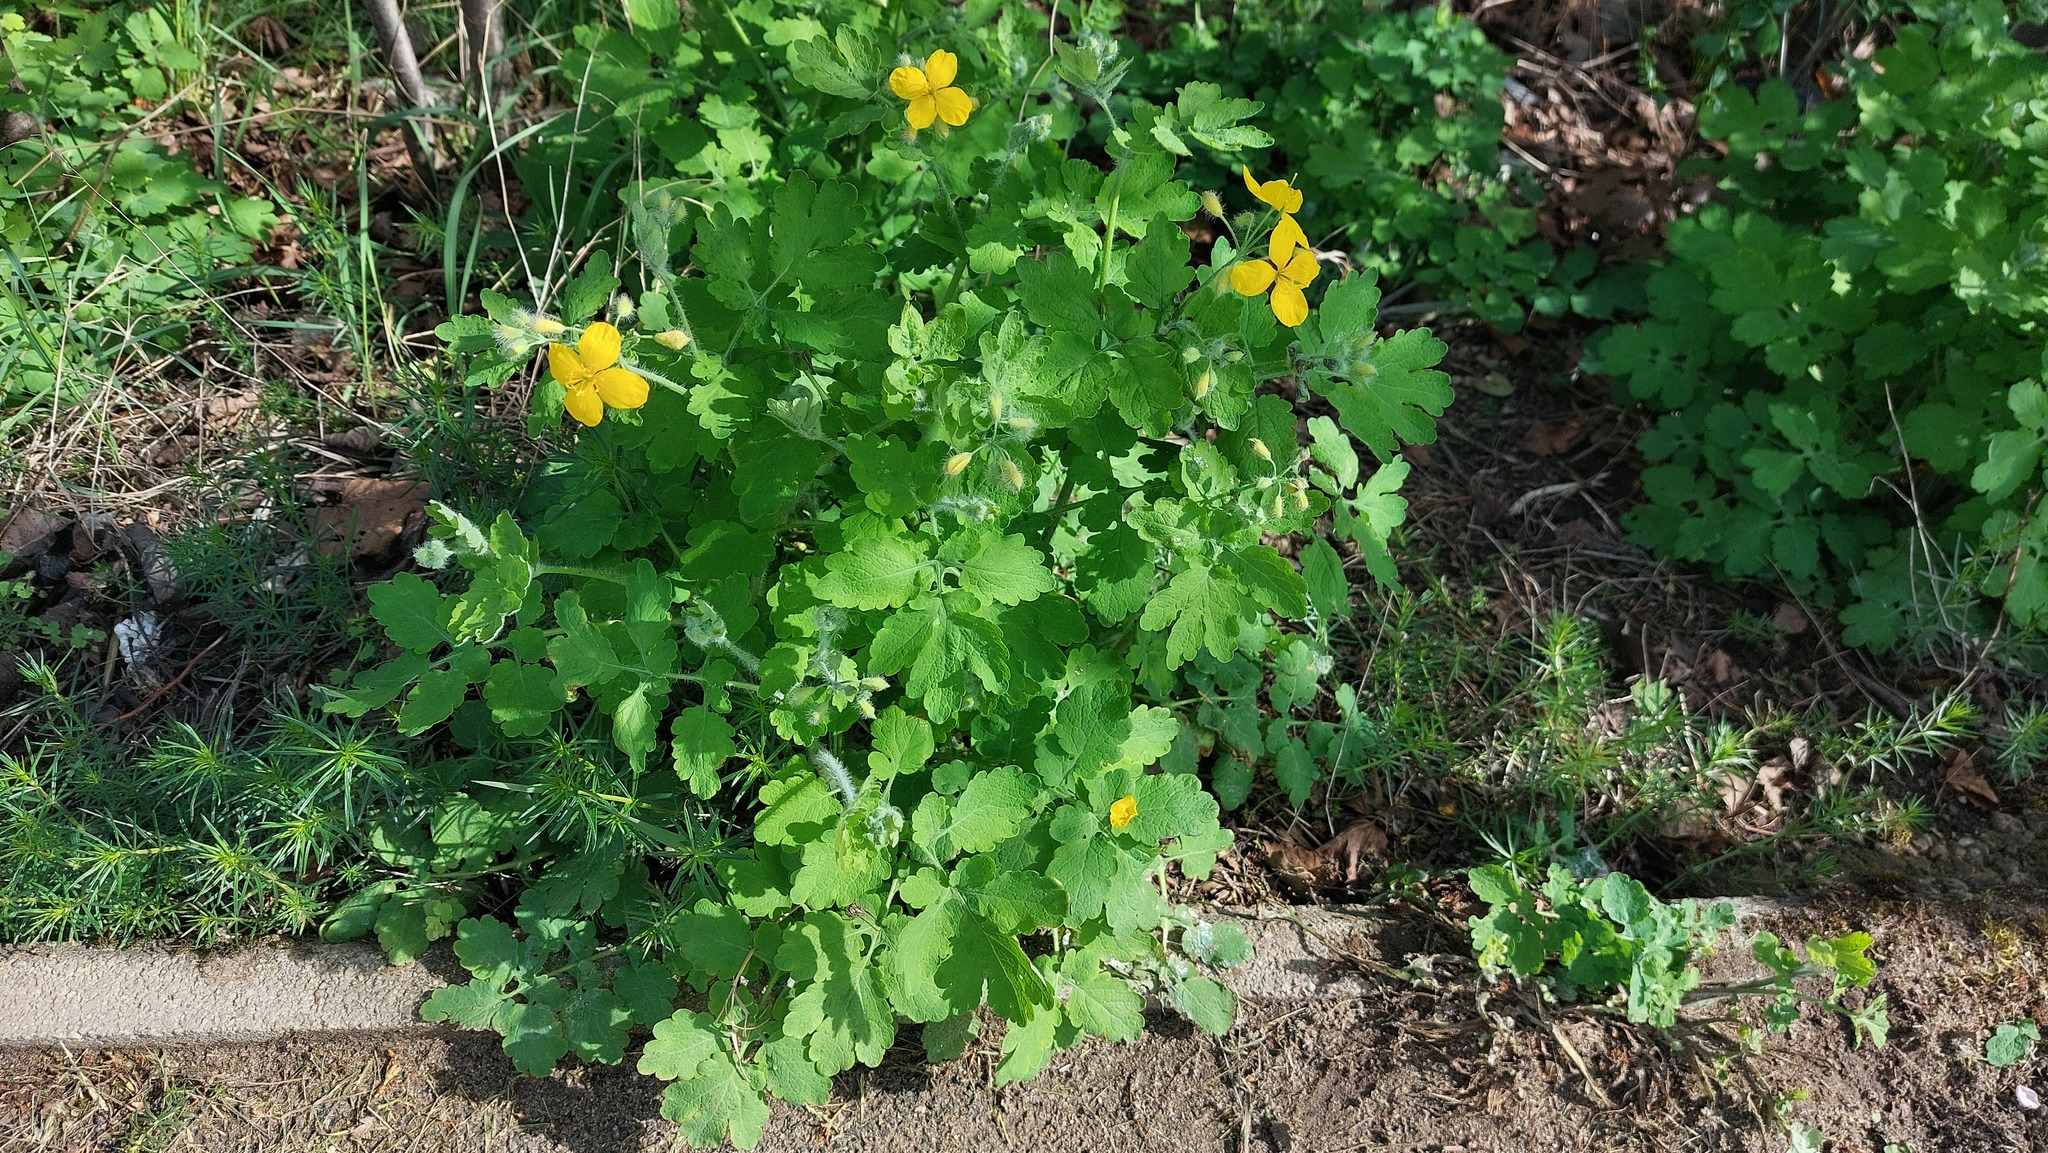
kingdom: Plantae
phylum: Tracheophyta
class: Magnoliopsida
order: Ranunculales
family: Papaveraceae
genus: Chelidonium
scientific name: Chelidonium majus
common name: Greater celandine
